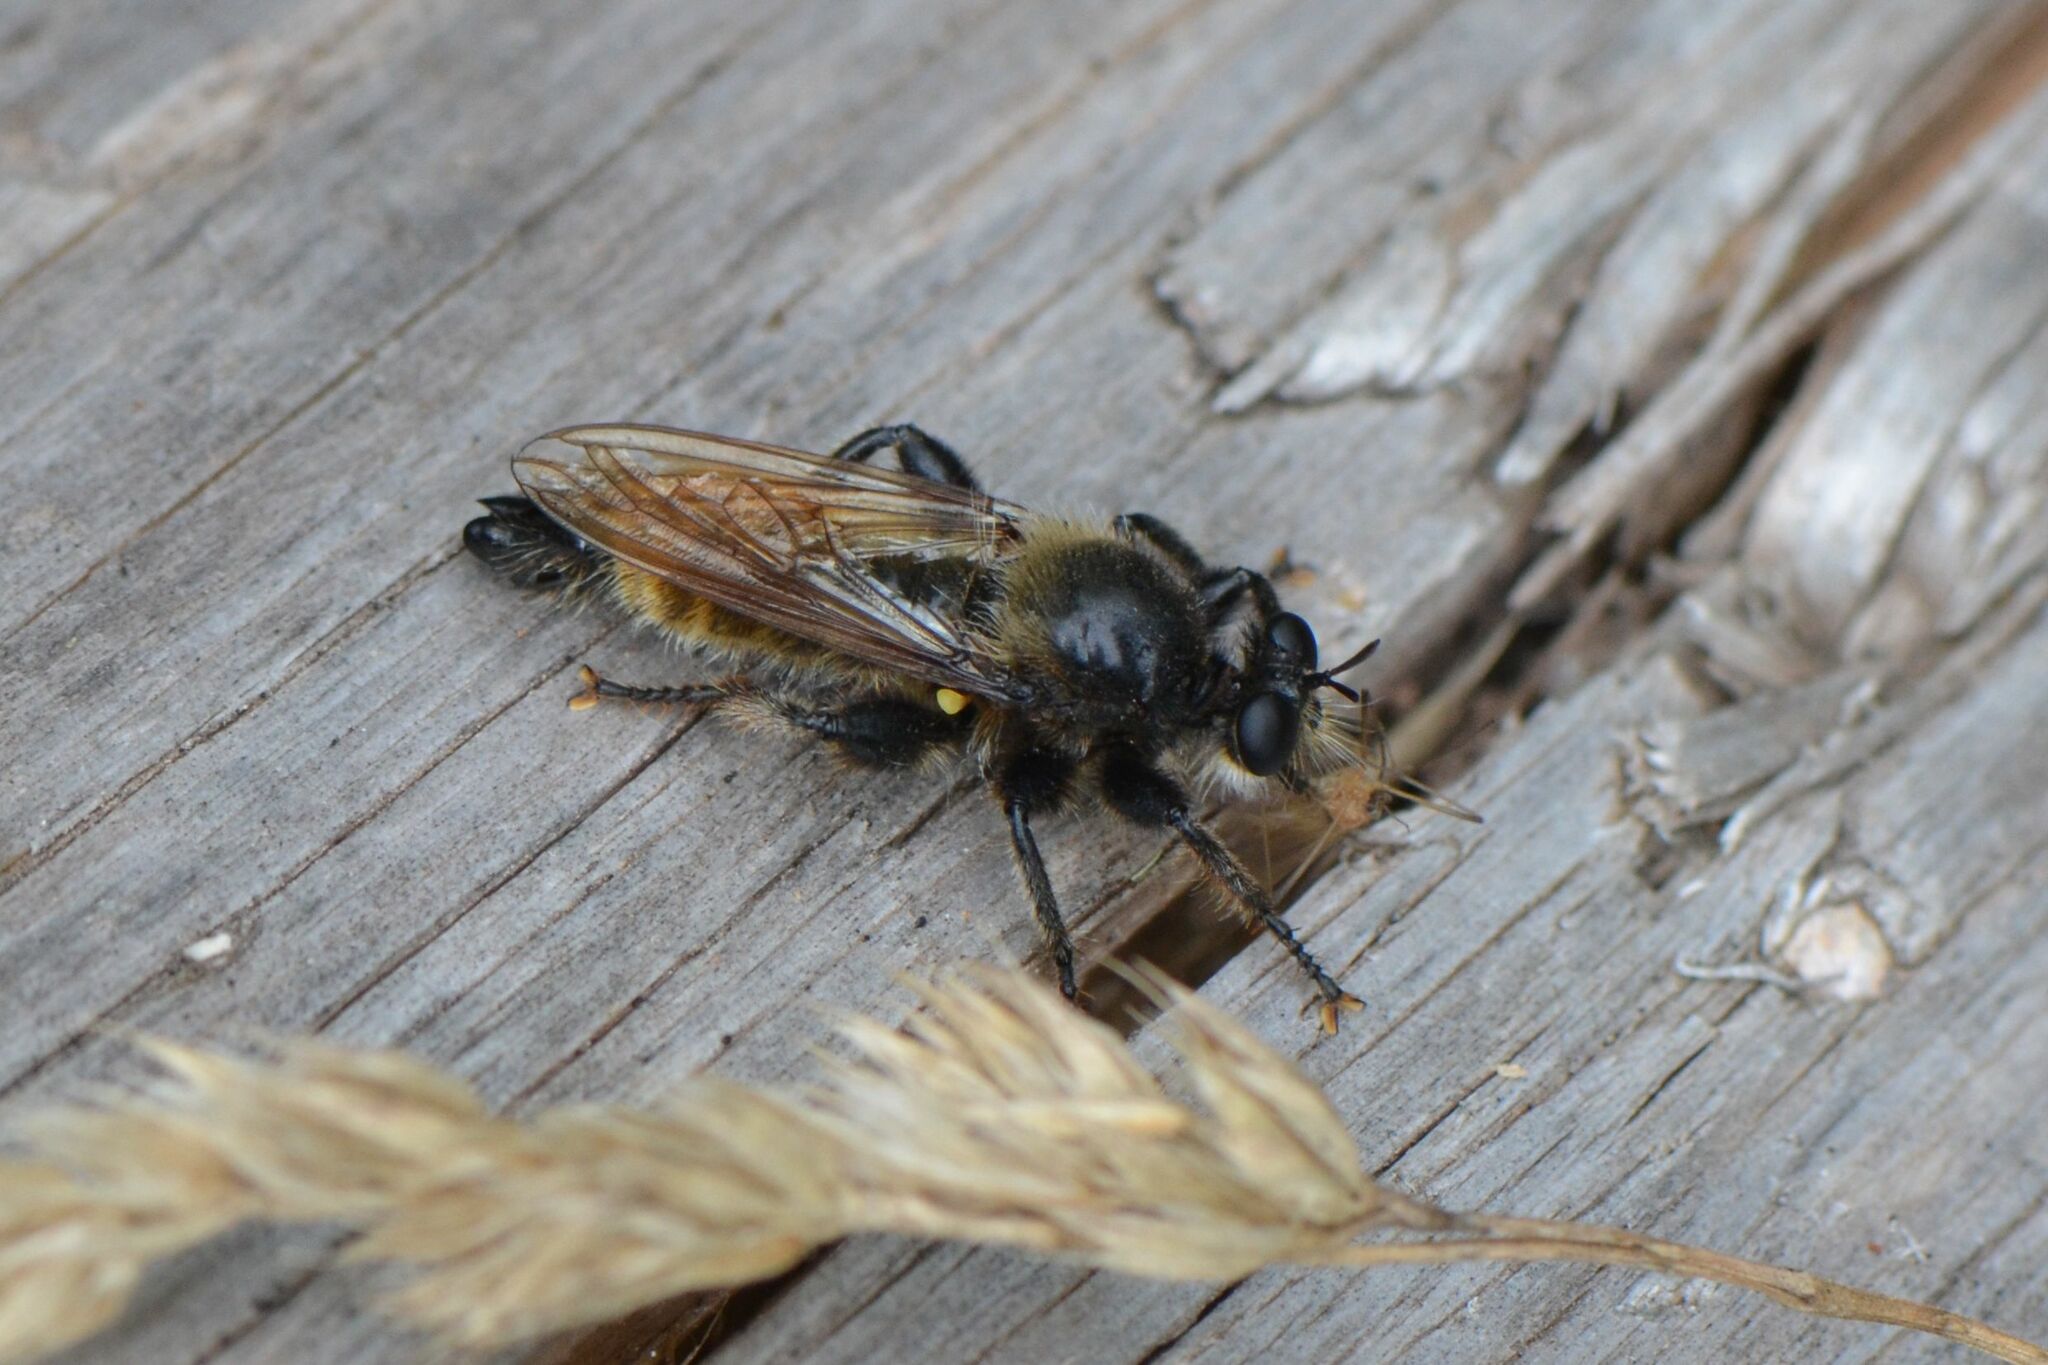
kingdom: Animalia
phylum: Arthropoda
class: Insecta
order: Diptera
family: Asilidae
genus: Laphria
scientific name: Laphria flava
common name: Bumblebee robberfly
